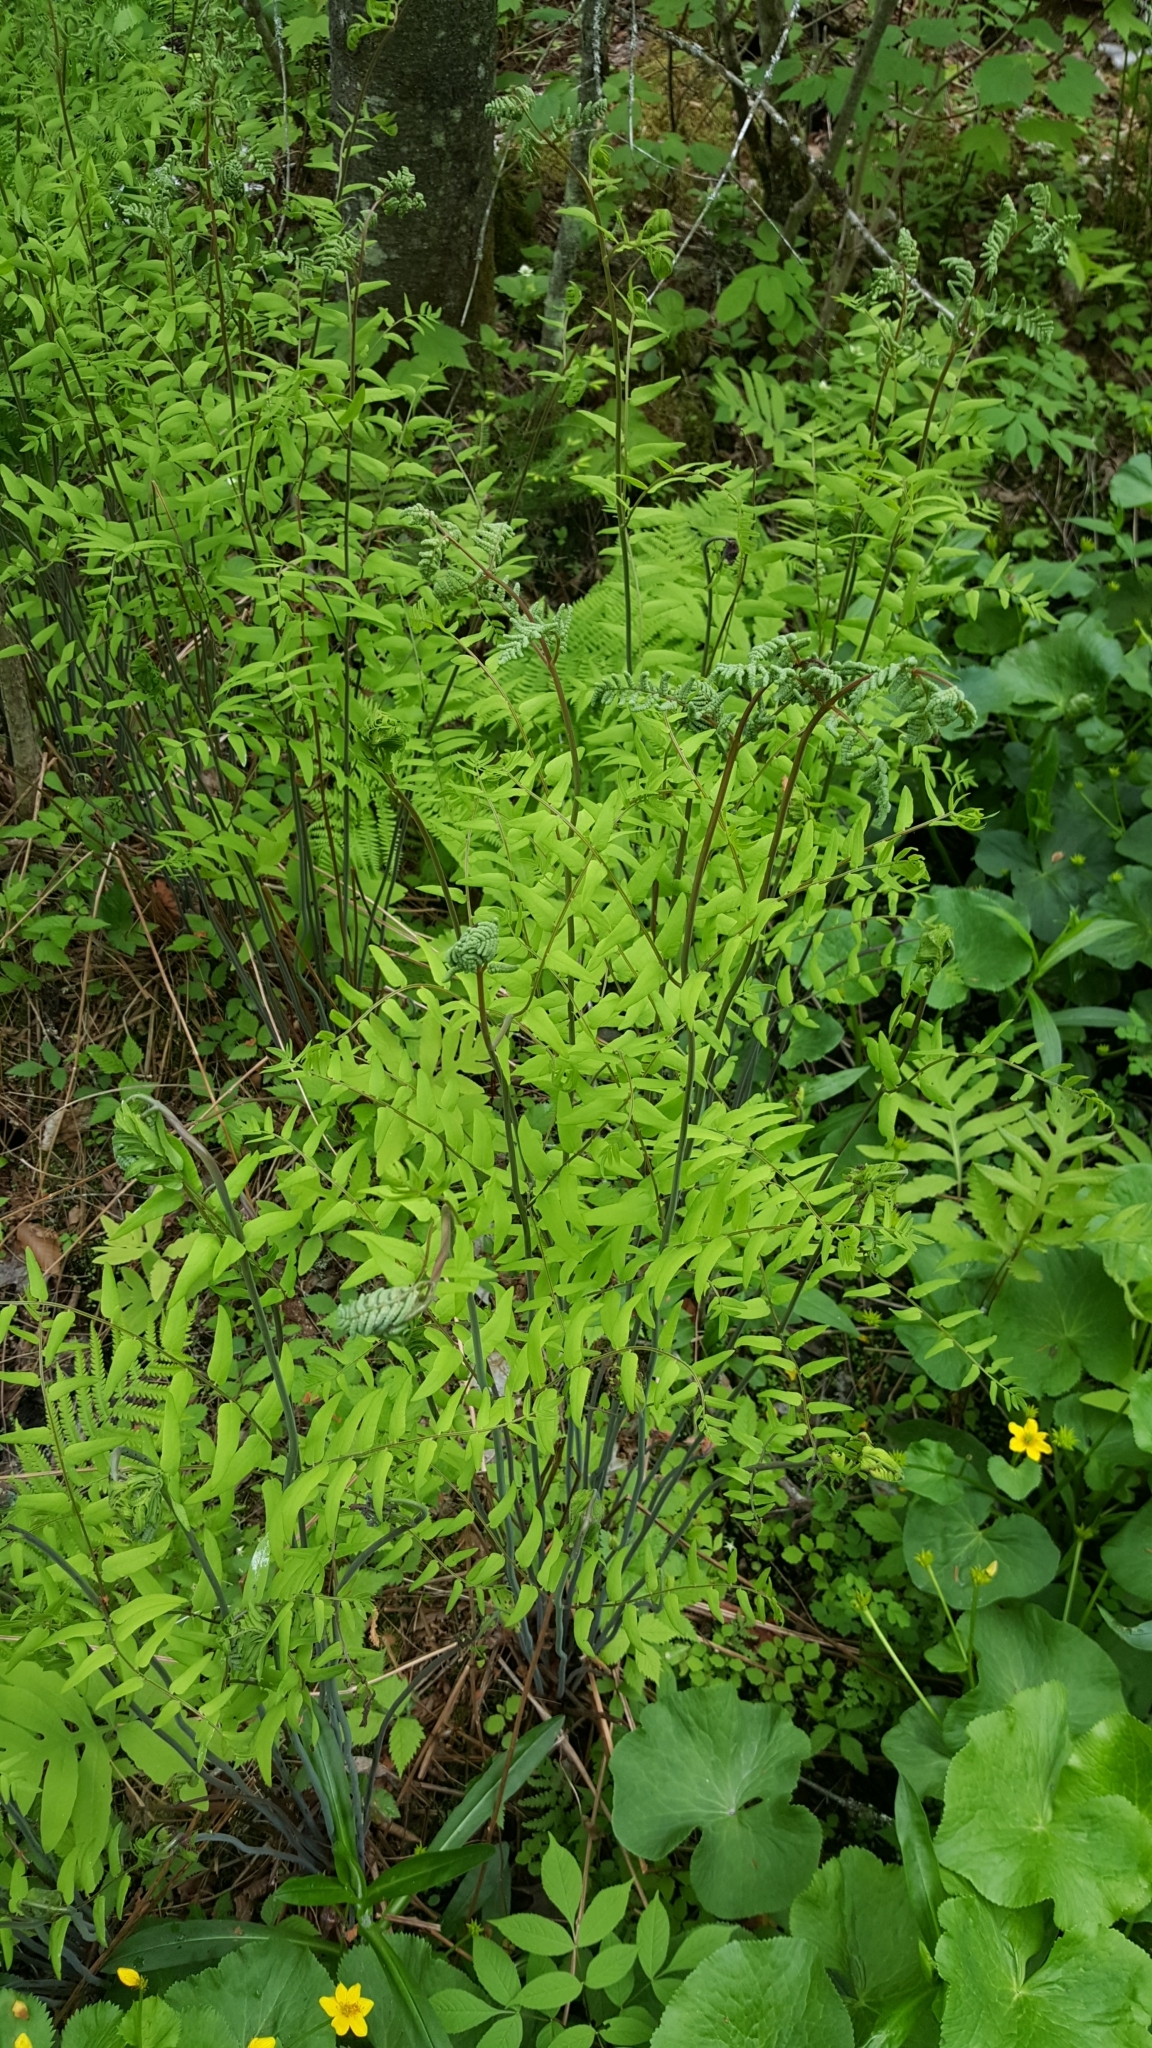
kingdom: Plantae
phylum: Tracheophyta
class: Polypodiopsida
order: Osmundales
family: Osmundaceae
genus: Osmunda
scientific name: Osmunda spectabilis
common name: American royal fern
